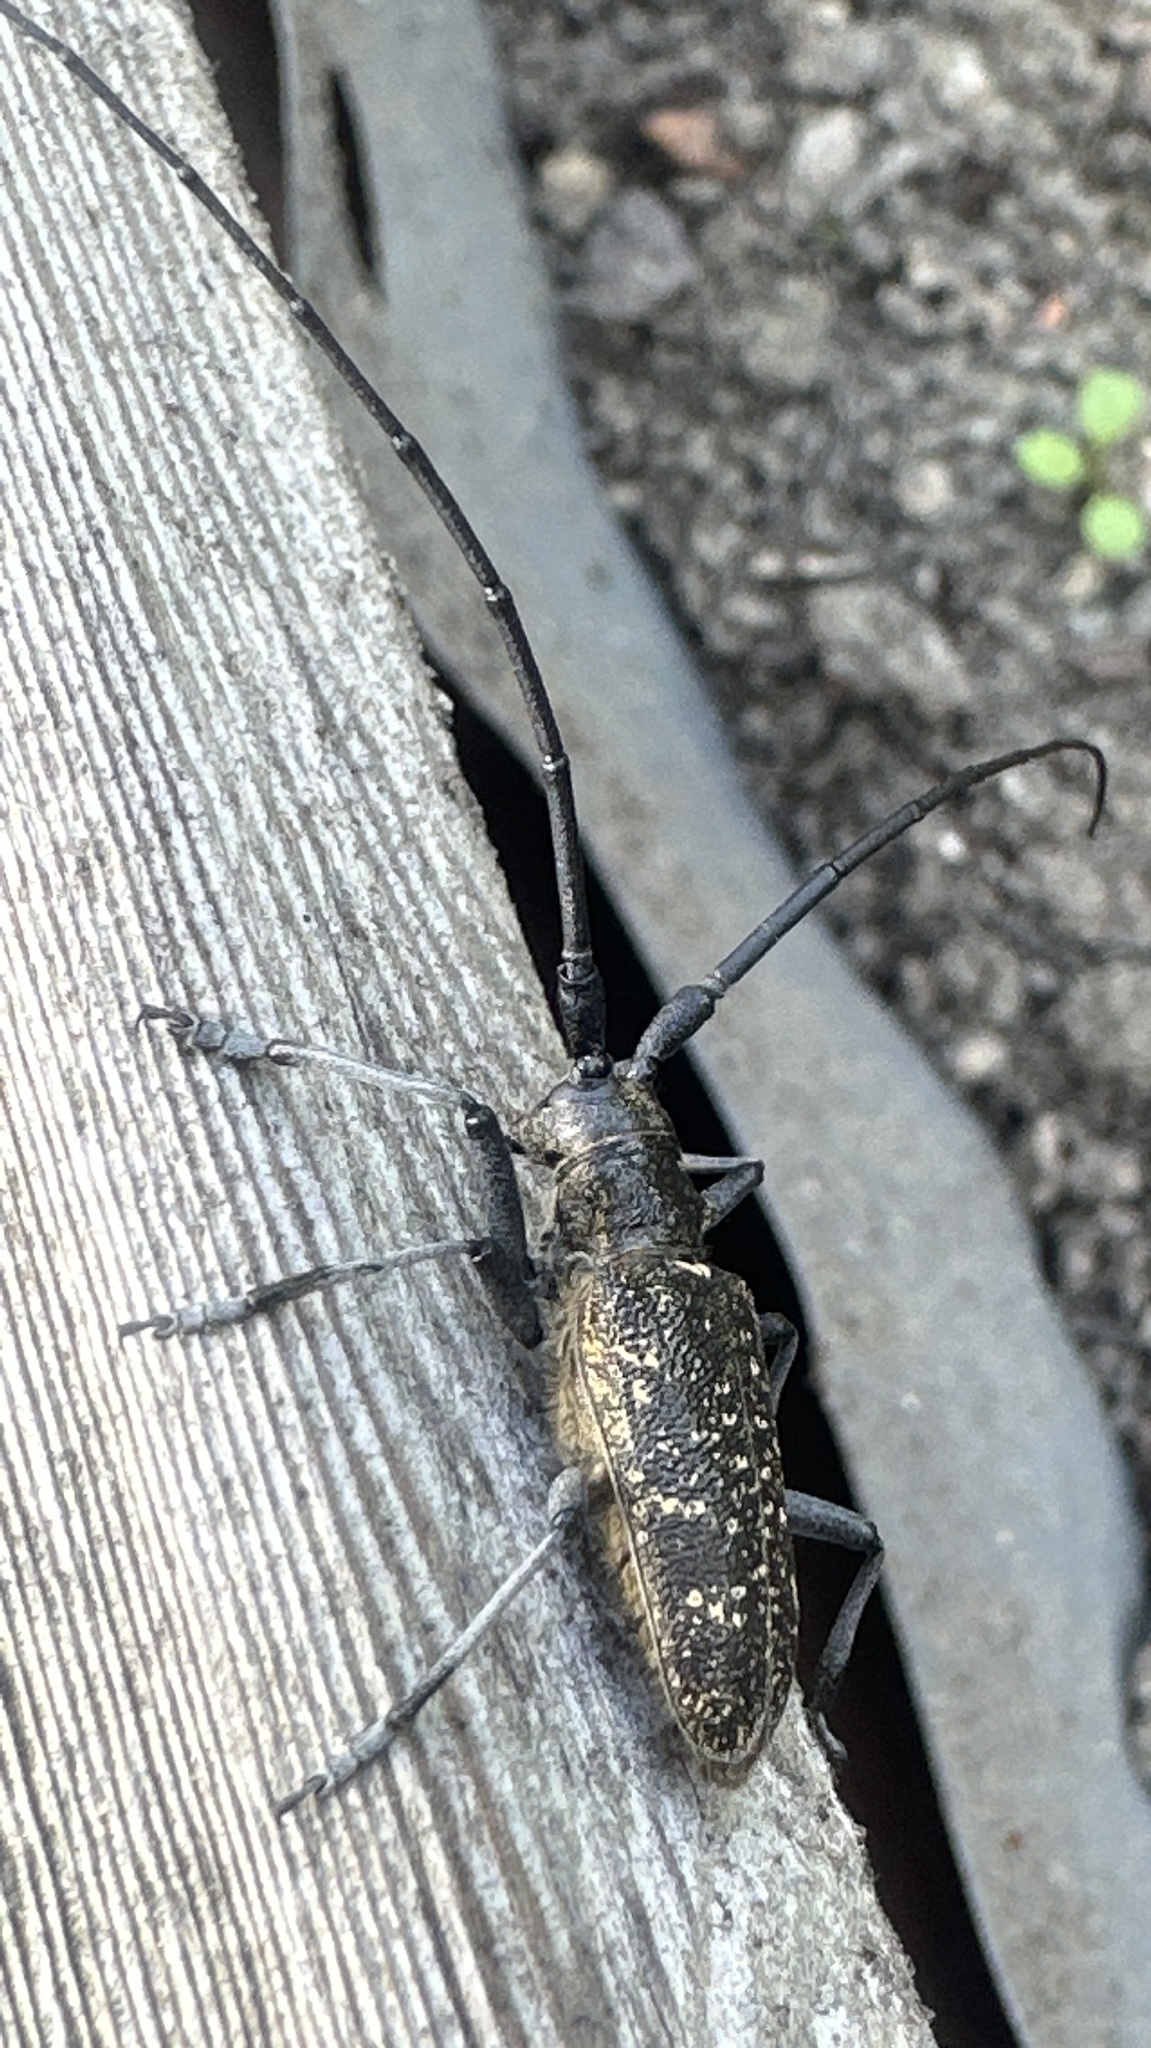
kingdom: Animalia
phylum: Arthropoda
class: Insecta
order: Coleoptera
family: Cerambycidae
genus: Monochamus
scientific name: Monochamus sutor
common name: Pine sawyer
